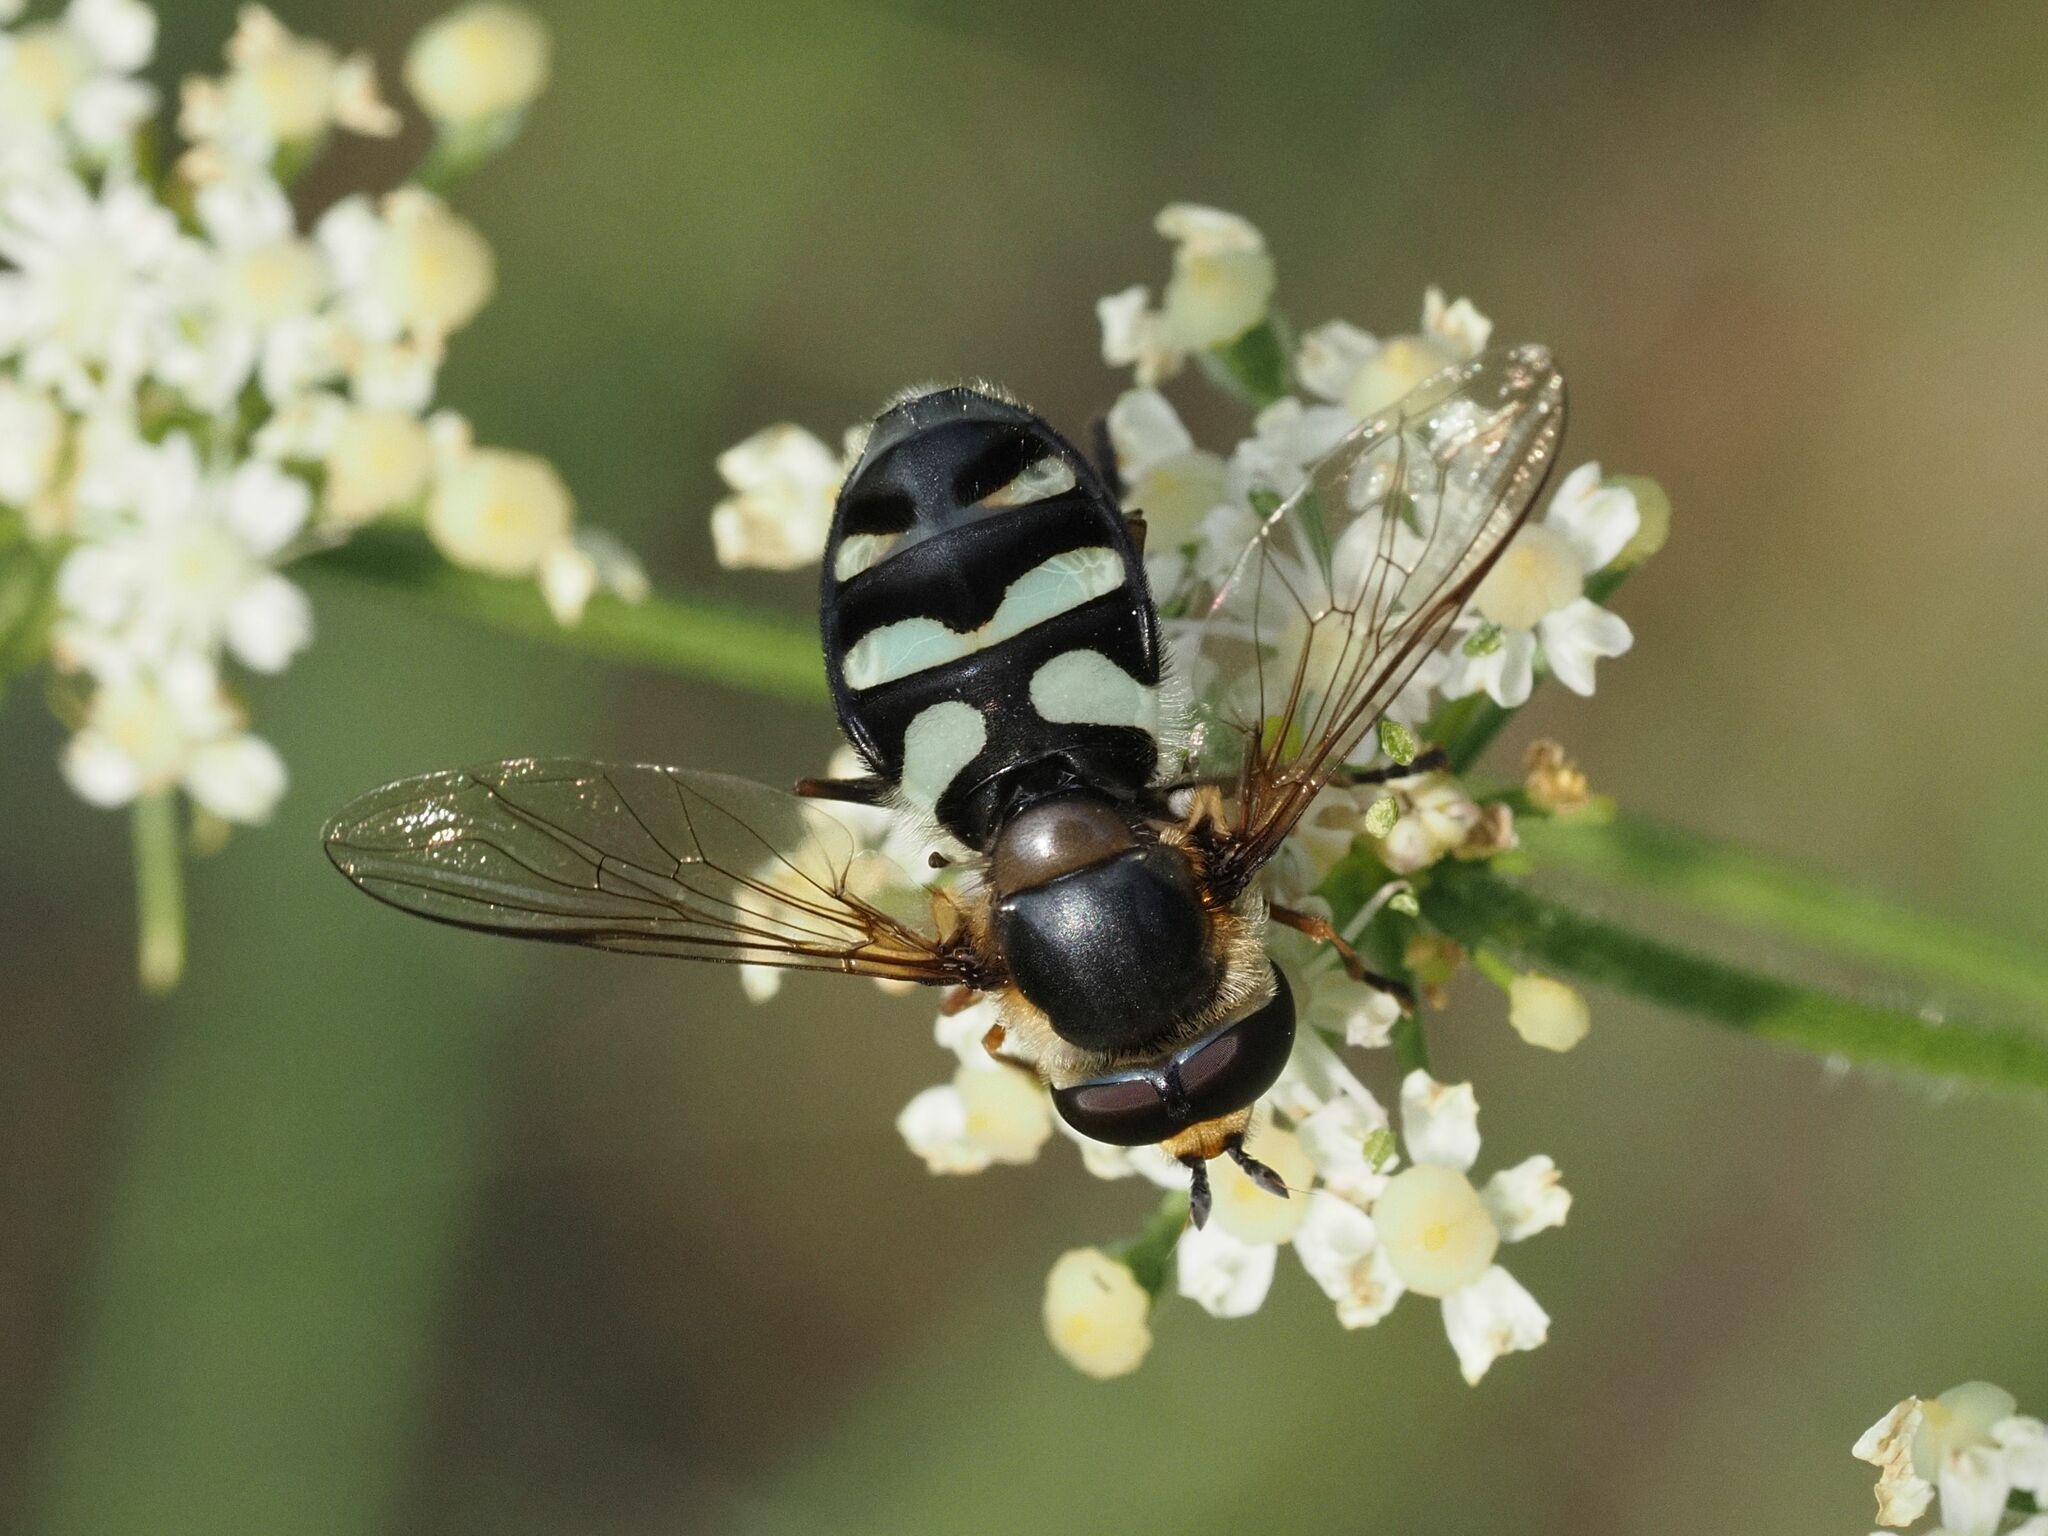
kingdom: Animalia
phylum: Arthropoda
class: Insecta
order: Diptera
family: Syrphidae
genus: Didea
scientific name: Didea alneti
